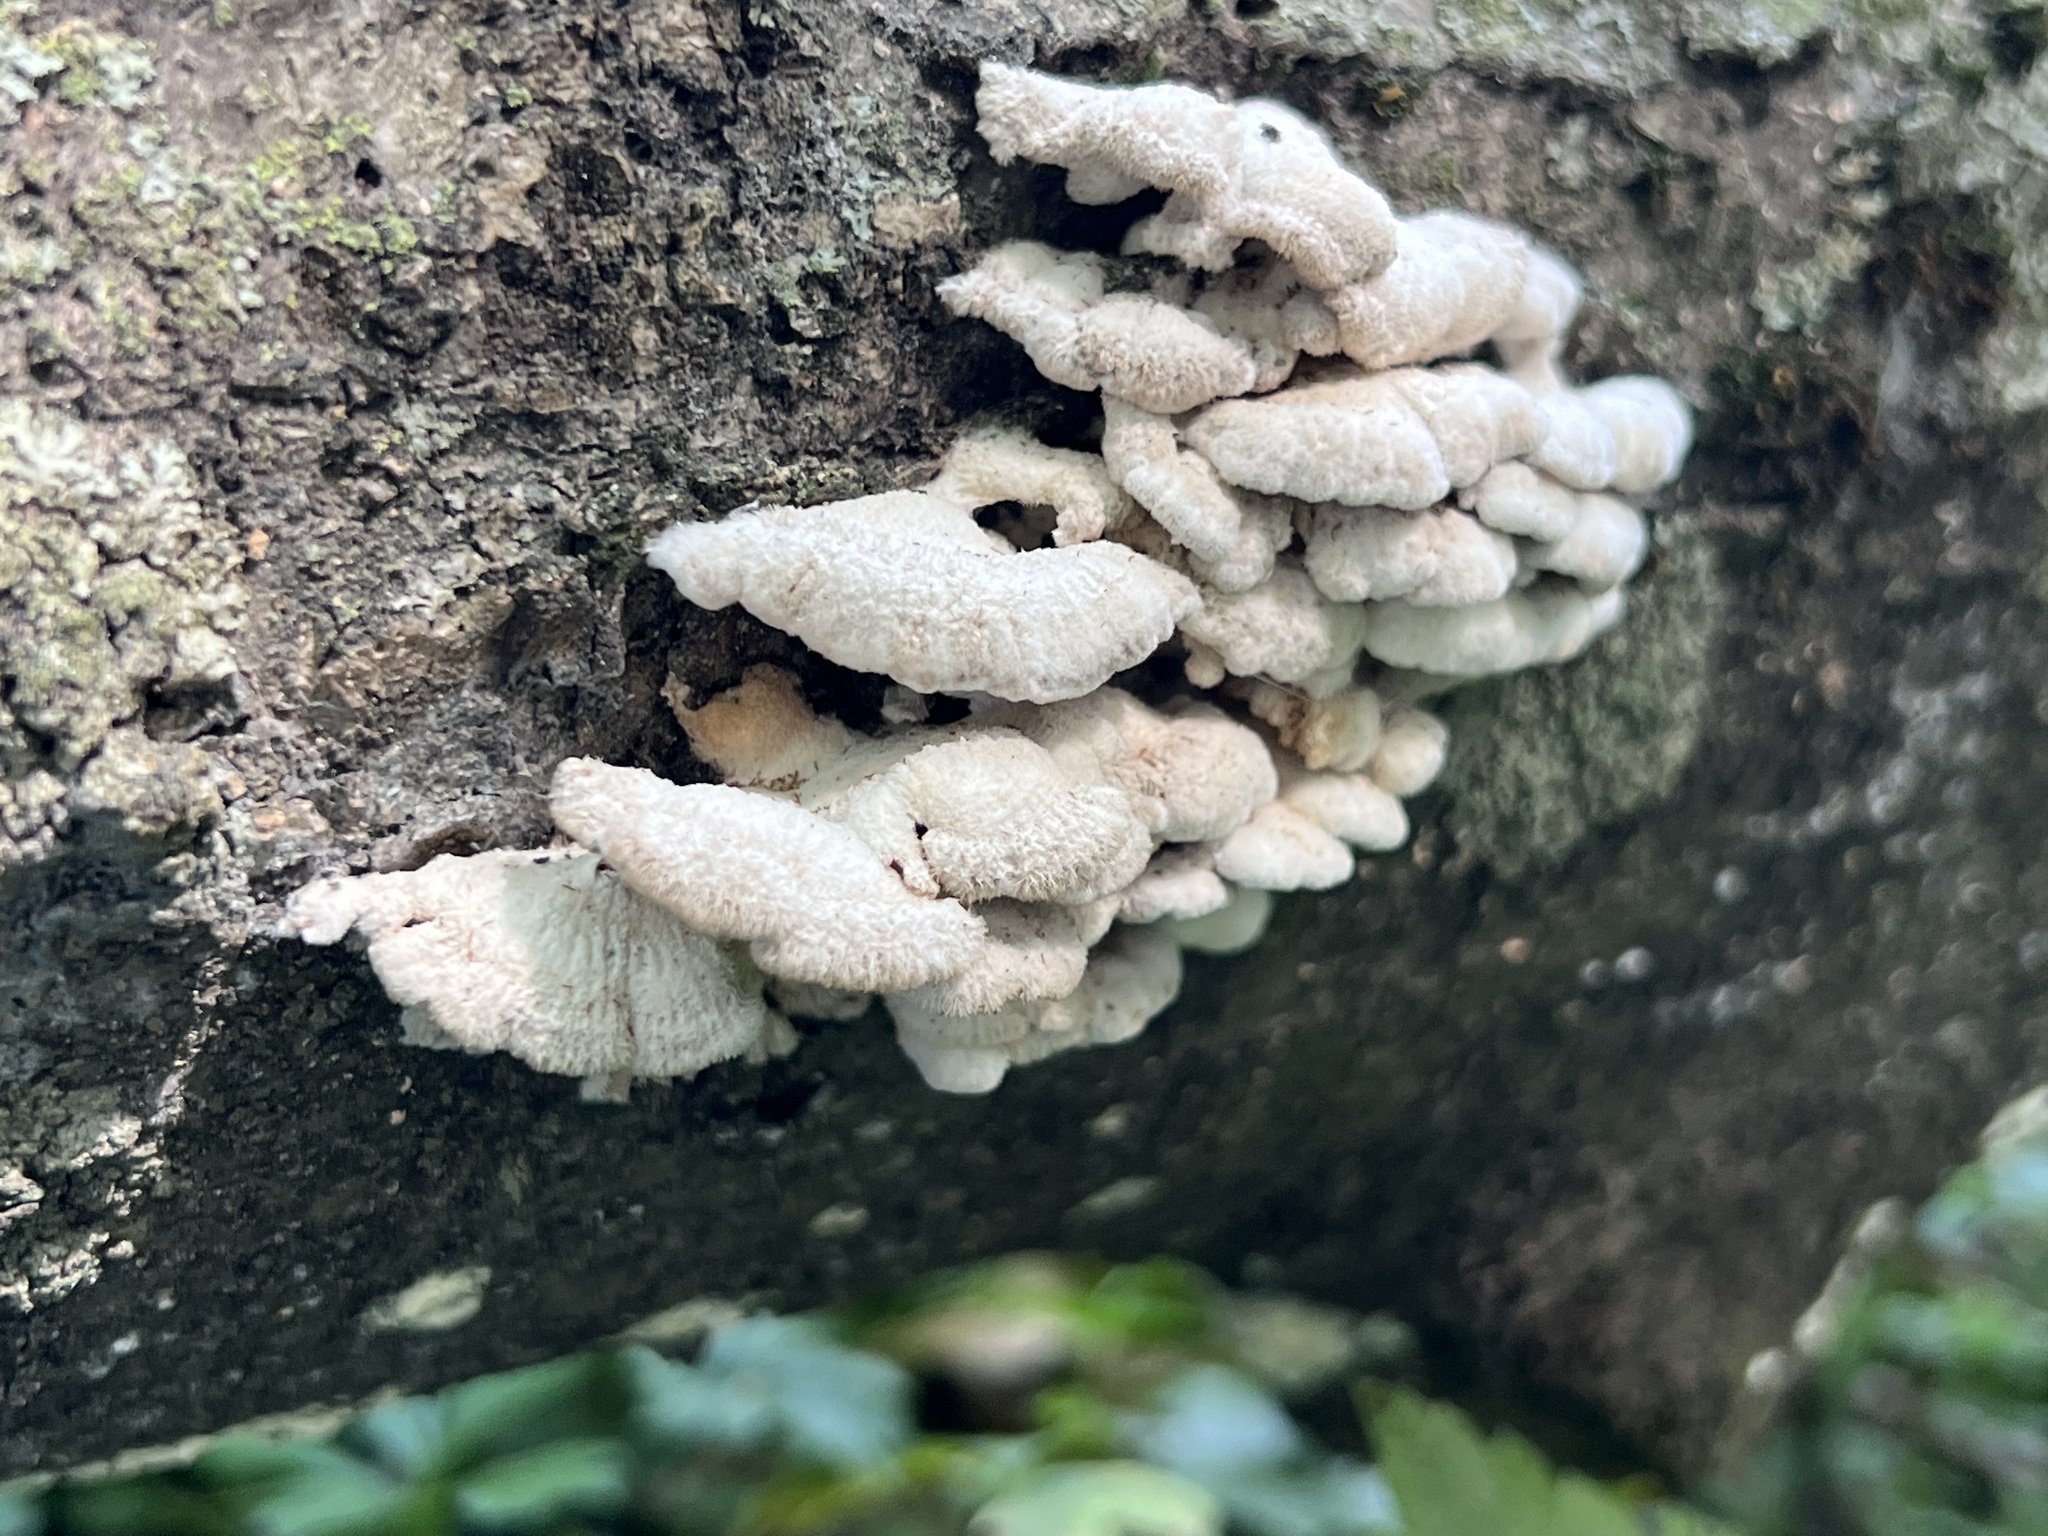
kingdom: Fungi
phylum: Basidiomycota
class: Agaricomycetes
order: Agaricales
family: Schizophyllaceae
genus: Schizophyllum
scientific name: Schizophyllum commune
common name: Common porecrust
